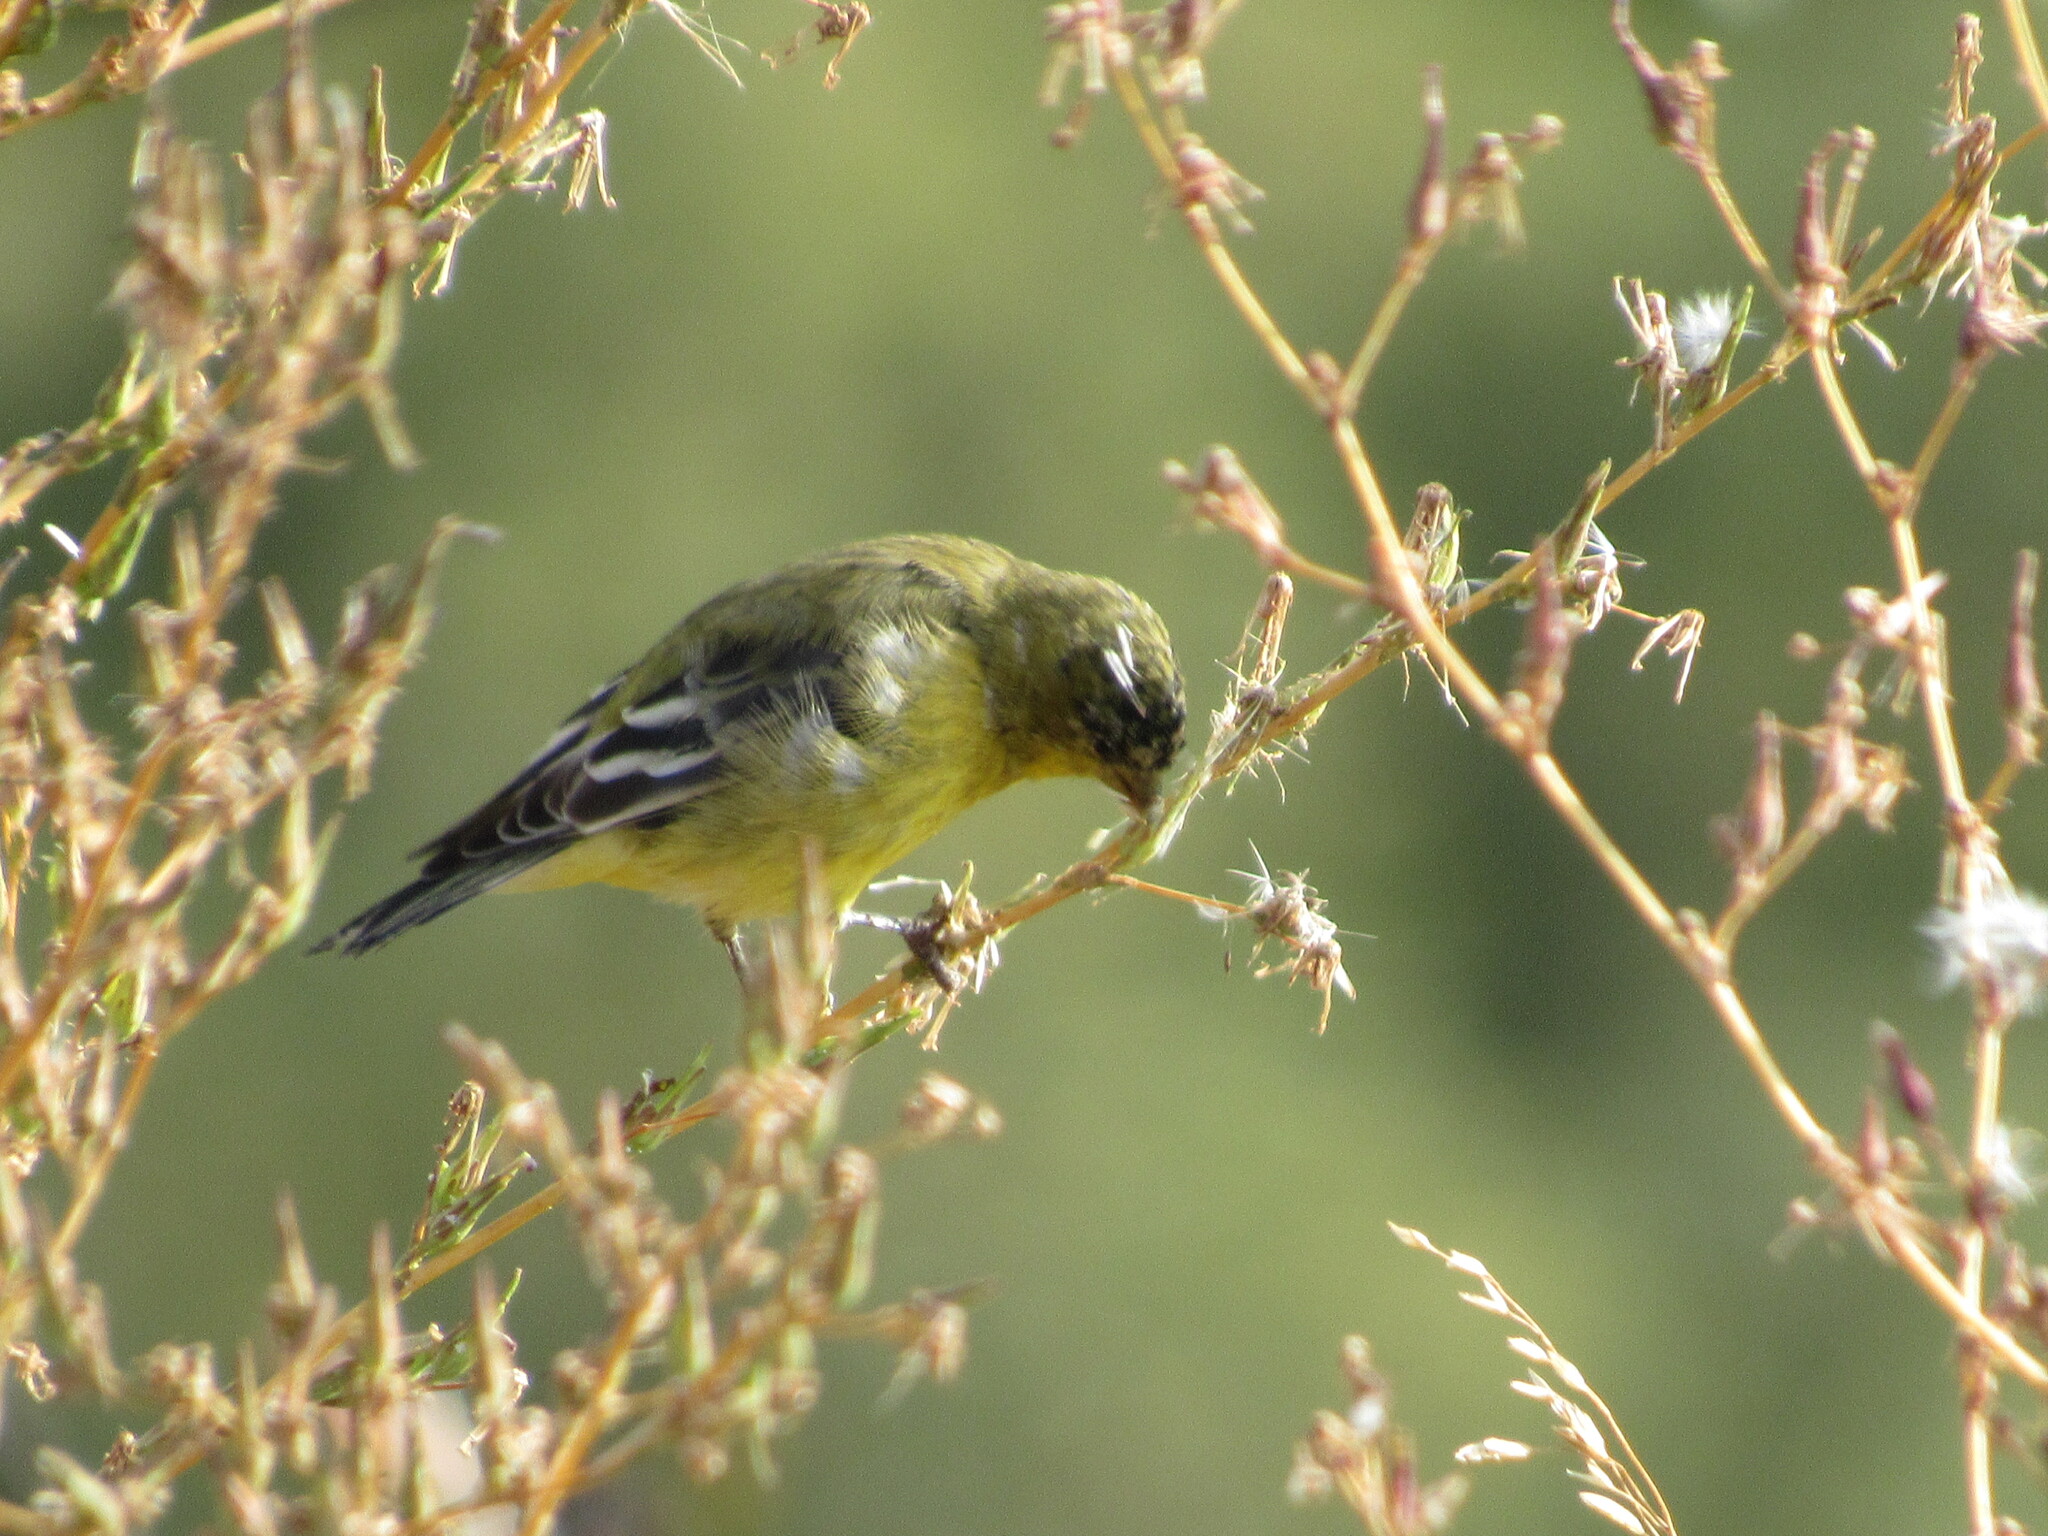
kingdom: Animalia
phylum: Chordata
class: Aves
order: Passeriformes
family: Fringillidae
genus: Spinus
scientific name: Spinus psaltria
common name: Lesser goldfinch
